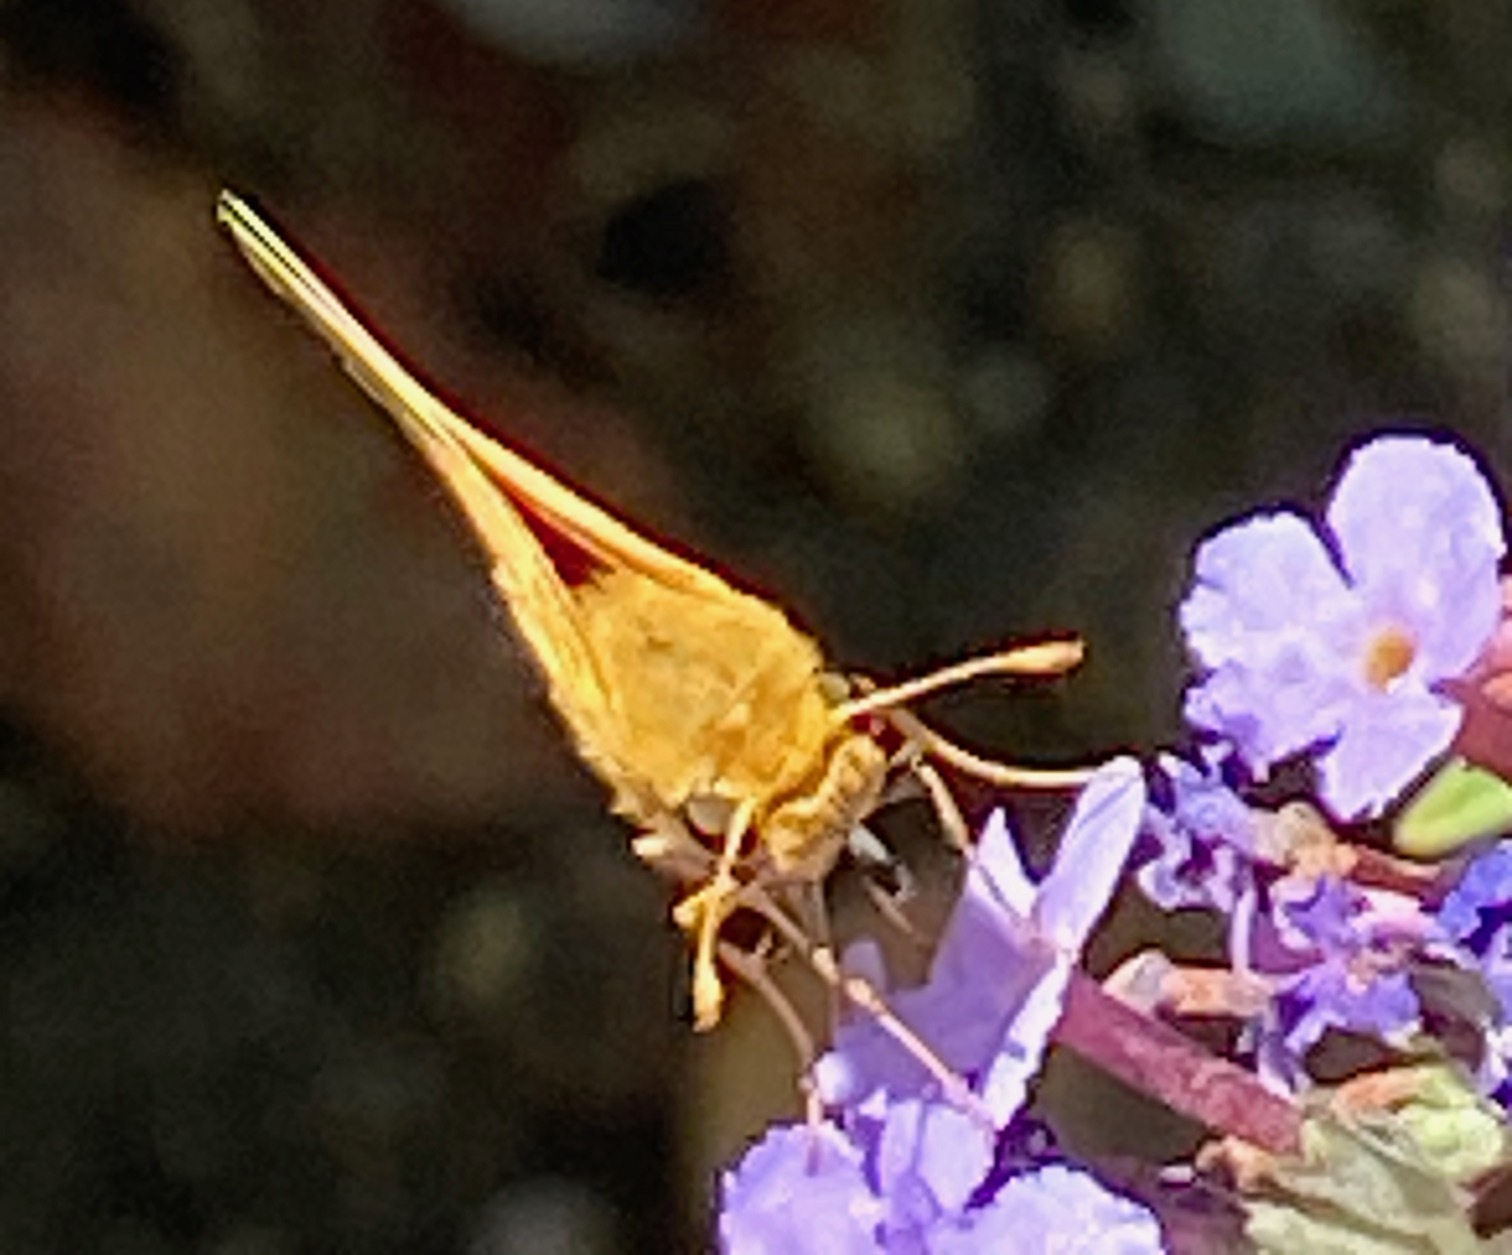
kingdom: Animalia
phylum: Arthropoda
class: Insecta
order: Lepidoptera
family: Hesperiidae
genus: Hylephila
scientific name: Hylephila phyleus
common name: Fiery skipper
